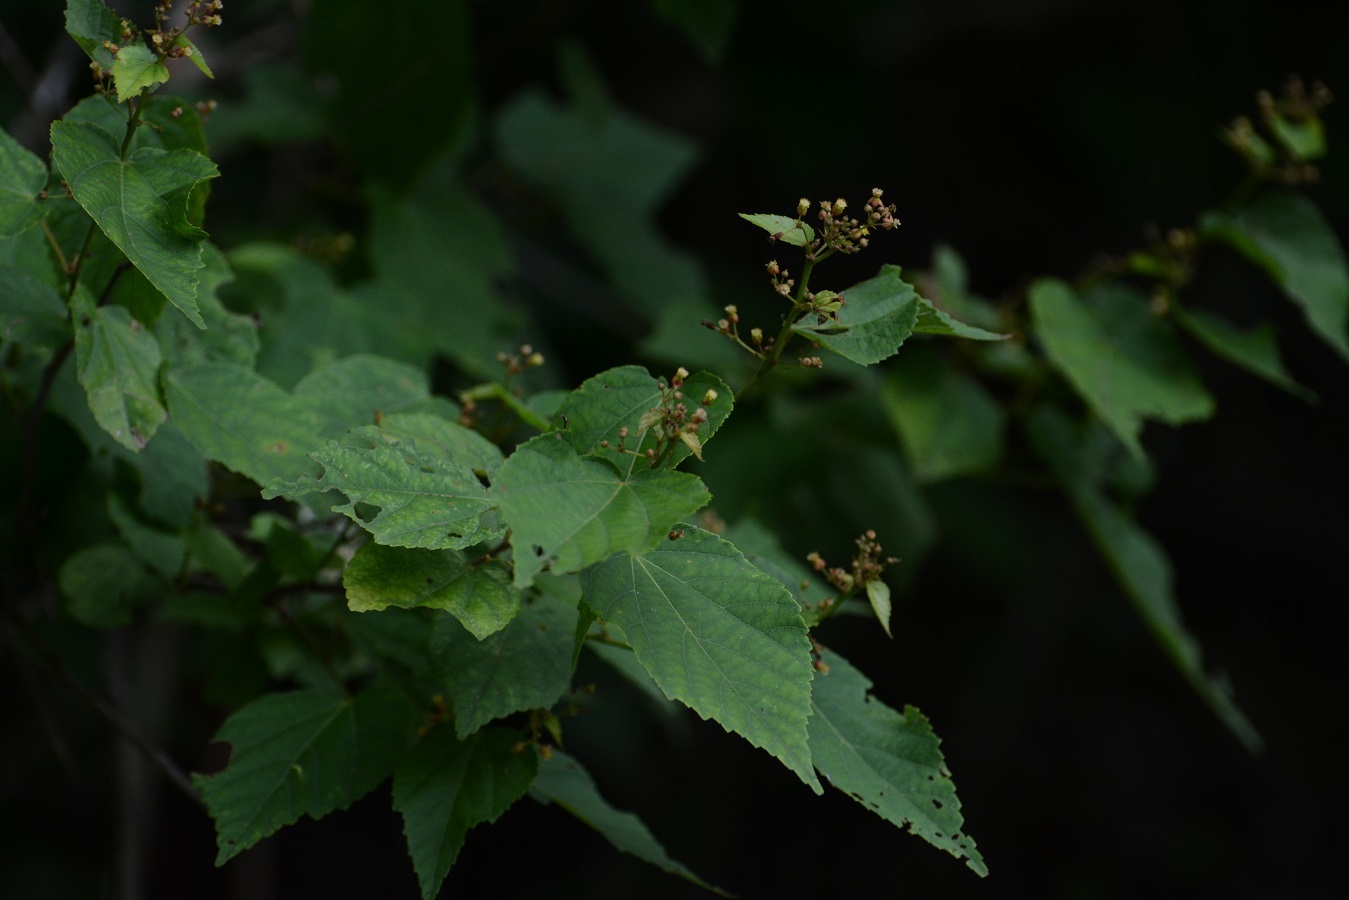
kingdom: Plantae
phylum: Tracheophyta
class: Magnoliopsida
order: Malvales
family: Malvaceae
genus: Ayenia
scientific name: Ayenia micrantha
